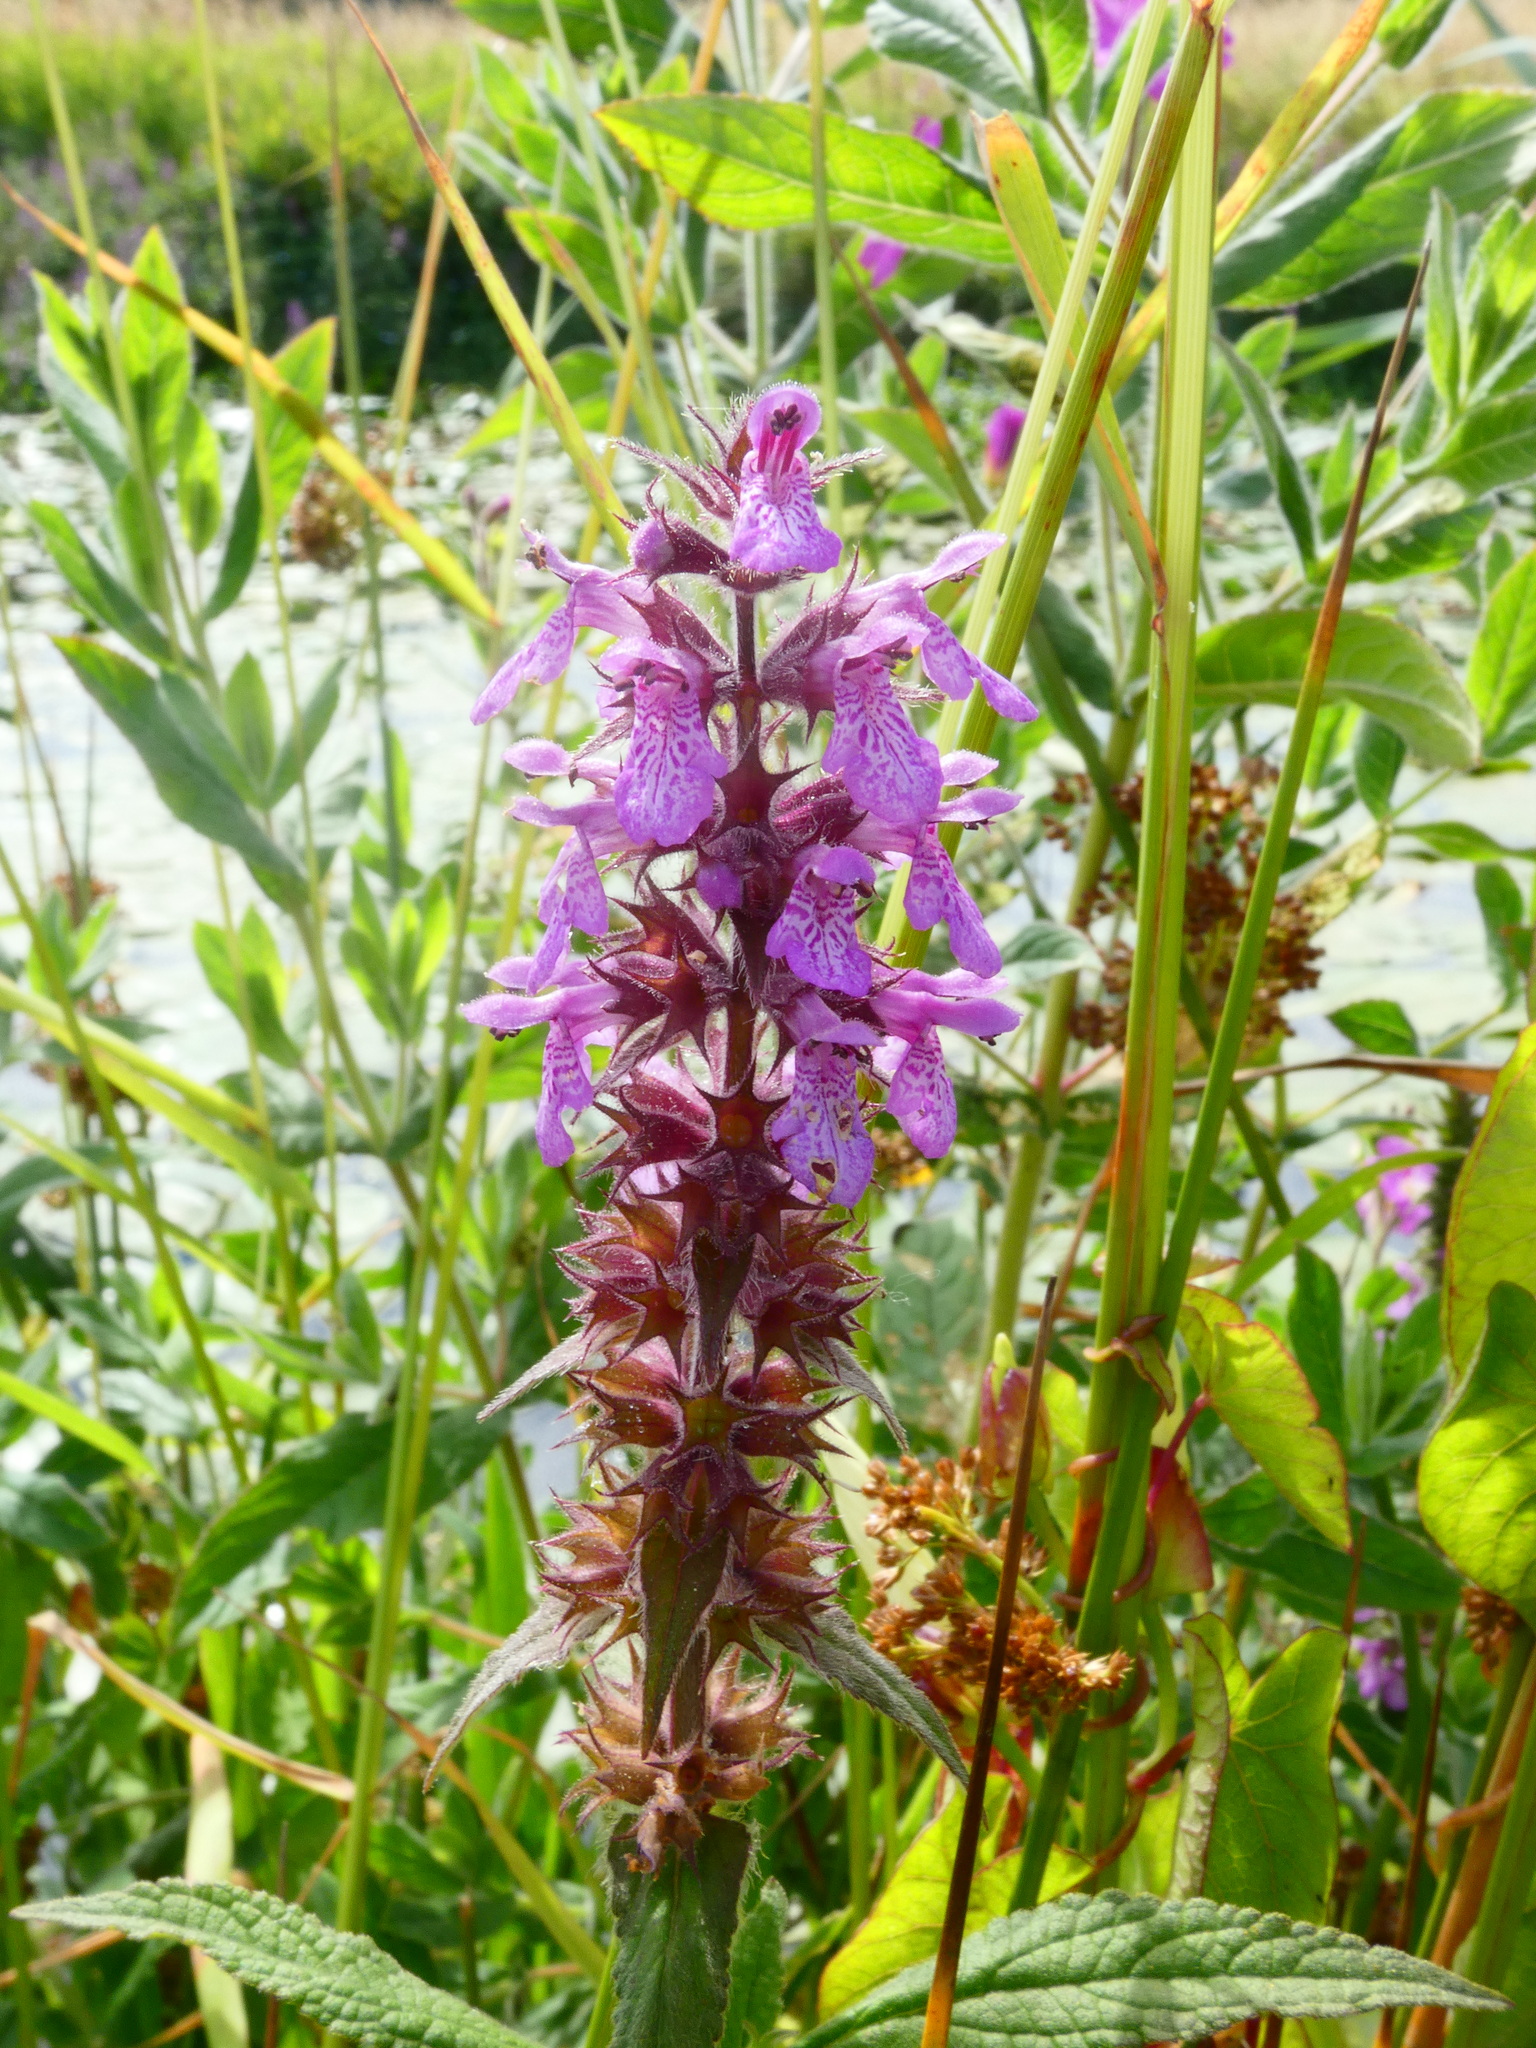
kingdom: Plantae
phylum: Tracheophyta
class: Magnoliopsida
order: Lamiales
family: Lamiaceae
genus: Stachys
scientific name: Stachys palustris
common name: Marsh woundwort
